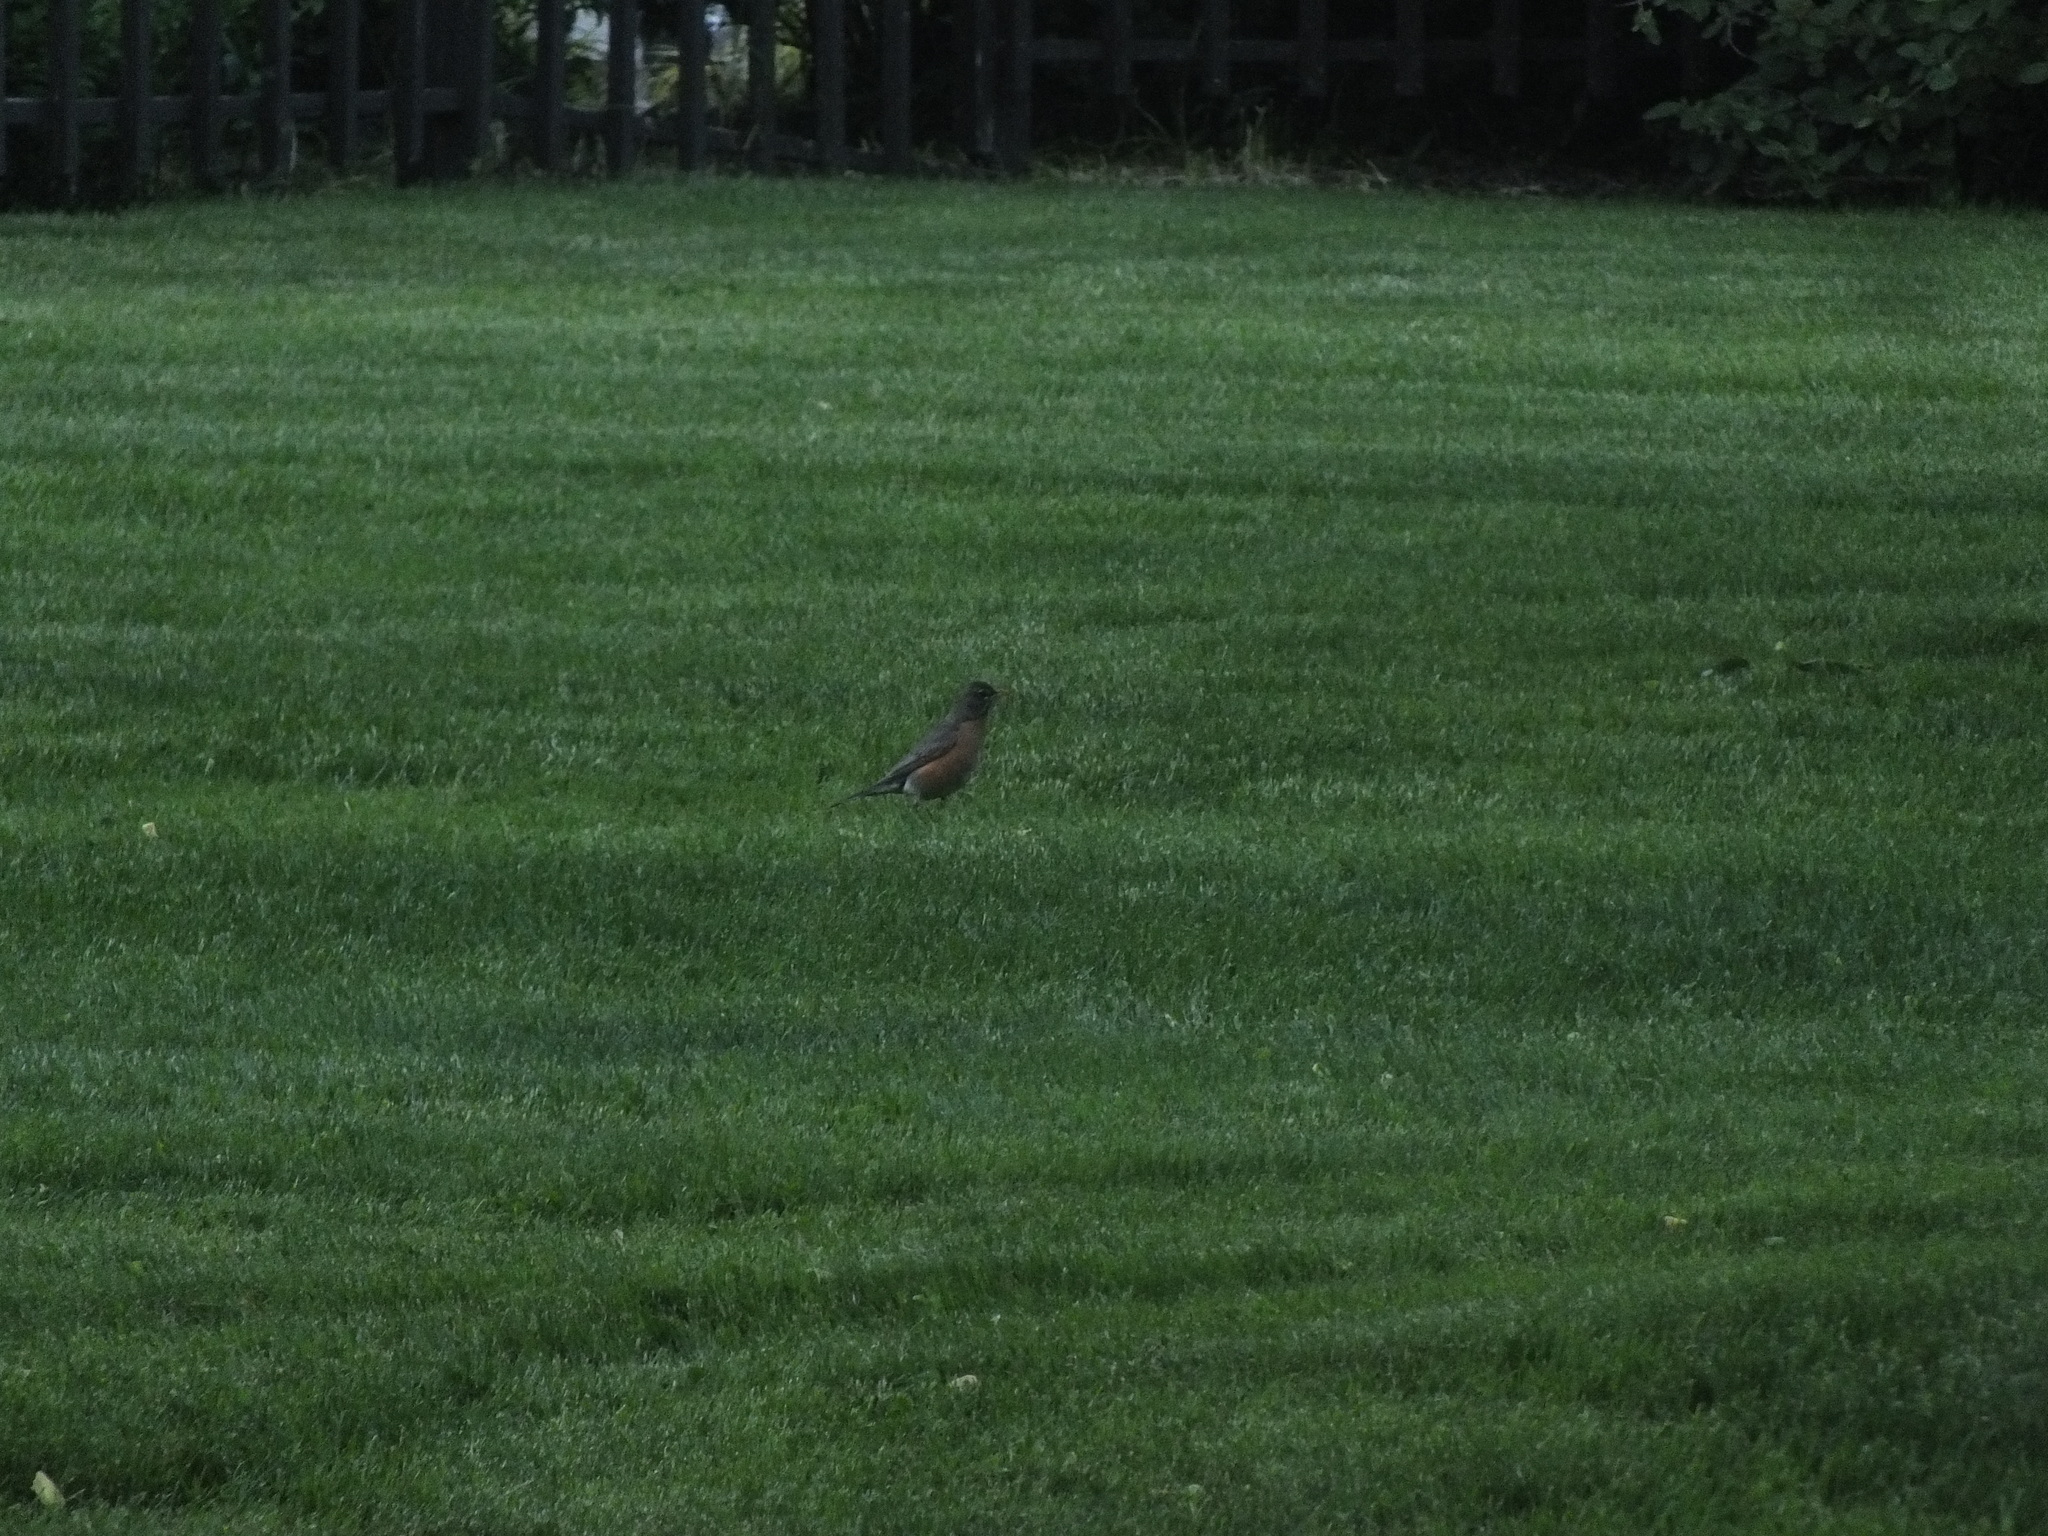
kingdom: Animalia
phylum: Chordata
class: Aves
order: Passeriformes
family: Turdidae
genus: Turdus
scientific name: Turdus migratorius
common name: American robin
